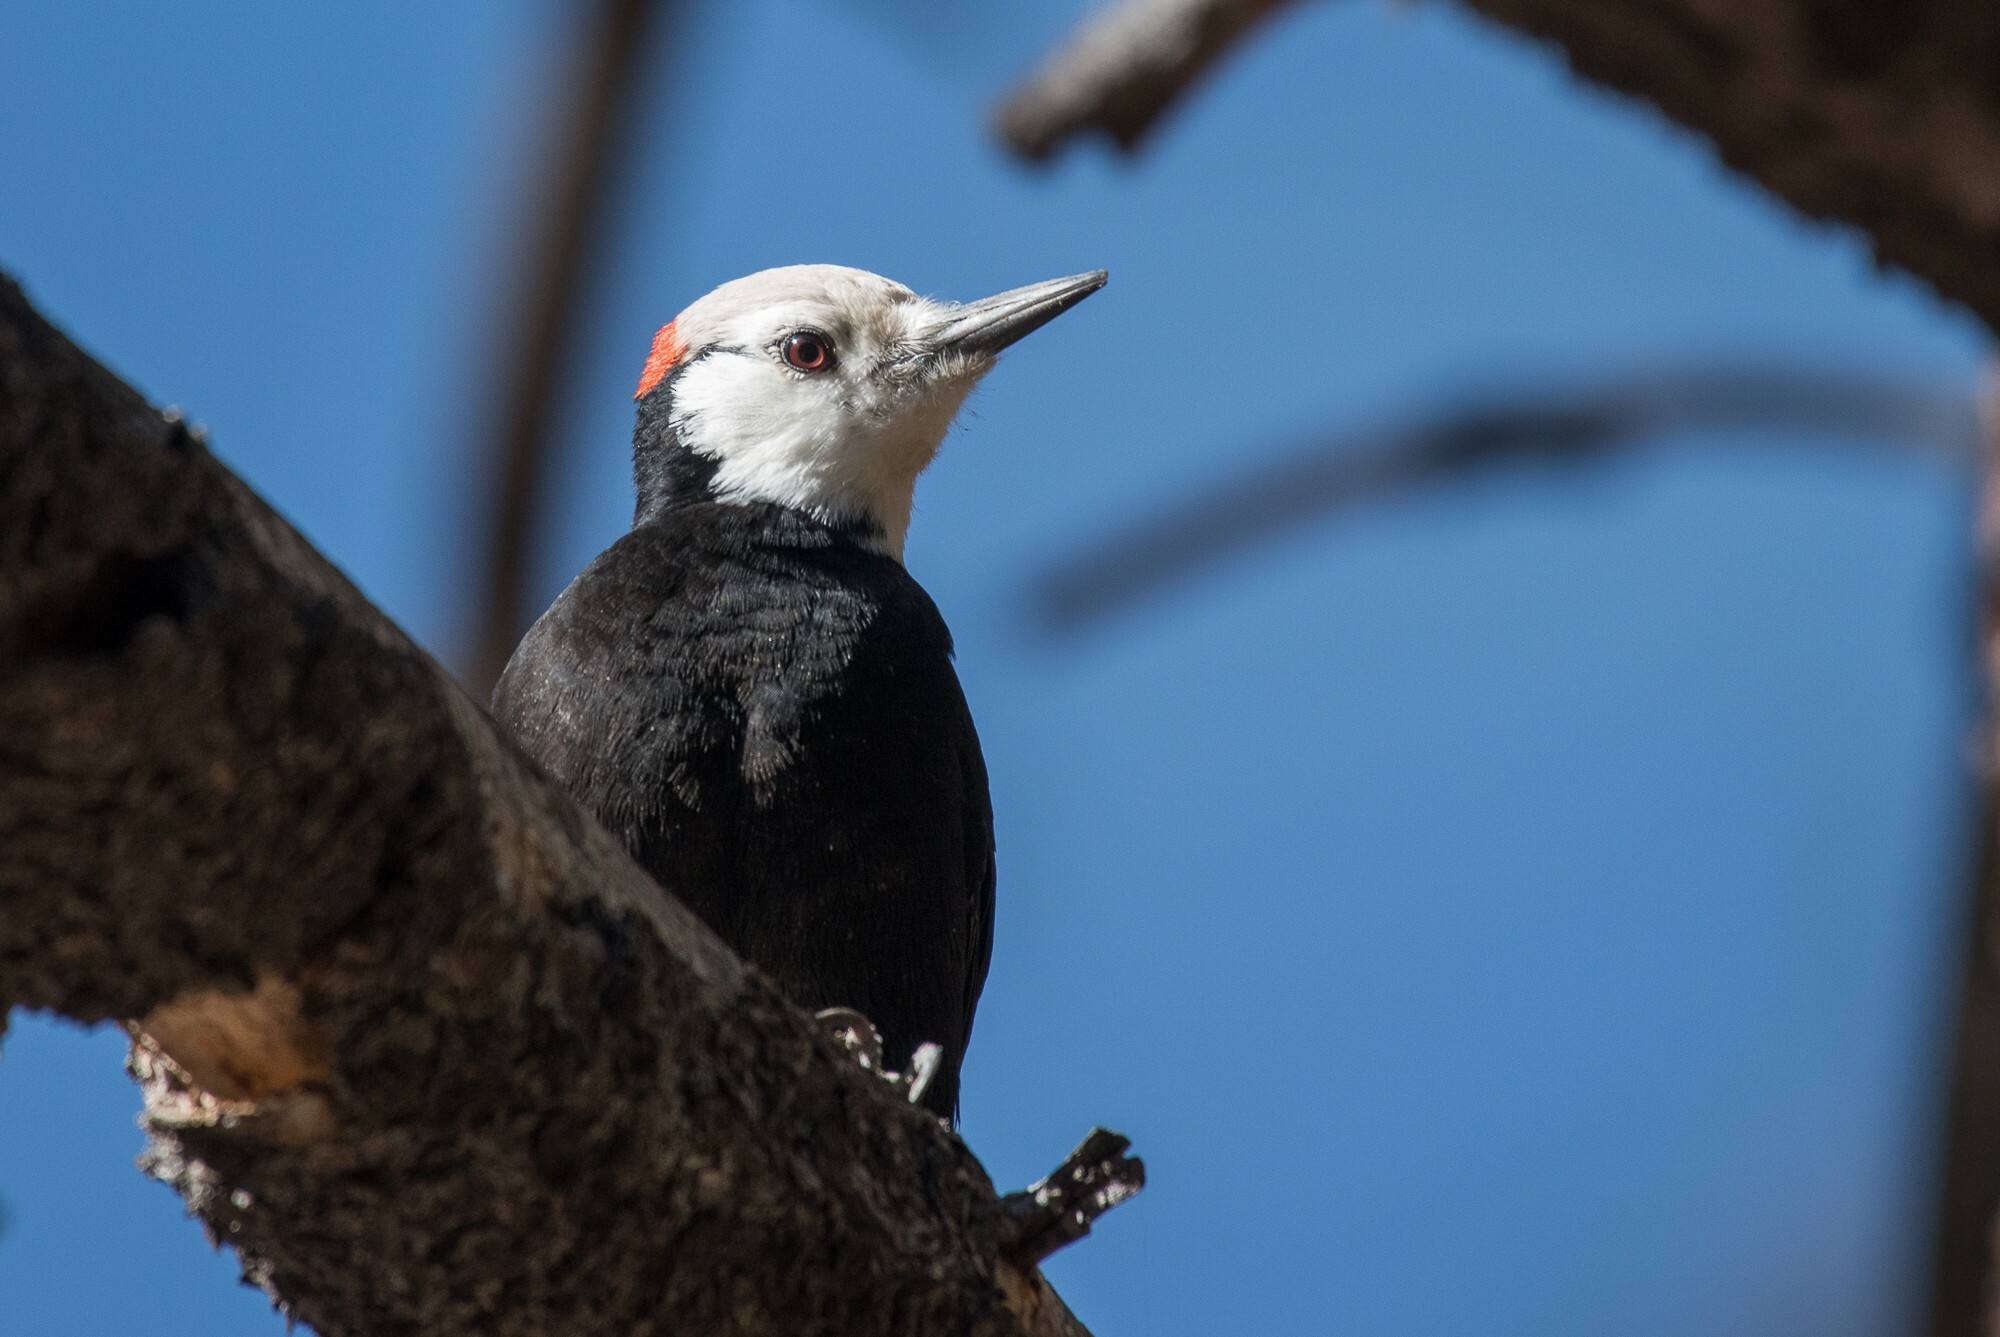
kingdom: Animalia
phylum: Chordata
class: Aves
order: Piciformes
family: Picidae
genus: Leuconotopicus
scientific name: Leuconotopicus albolarvatus
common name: White-headed woodpecker
